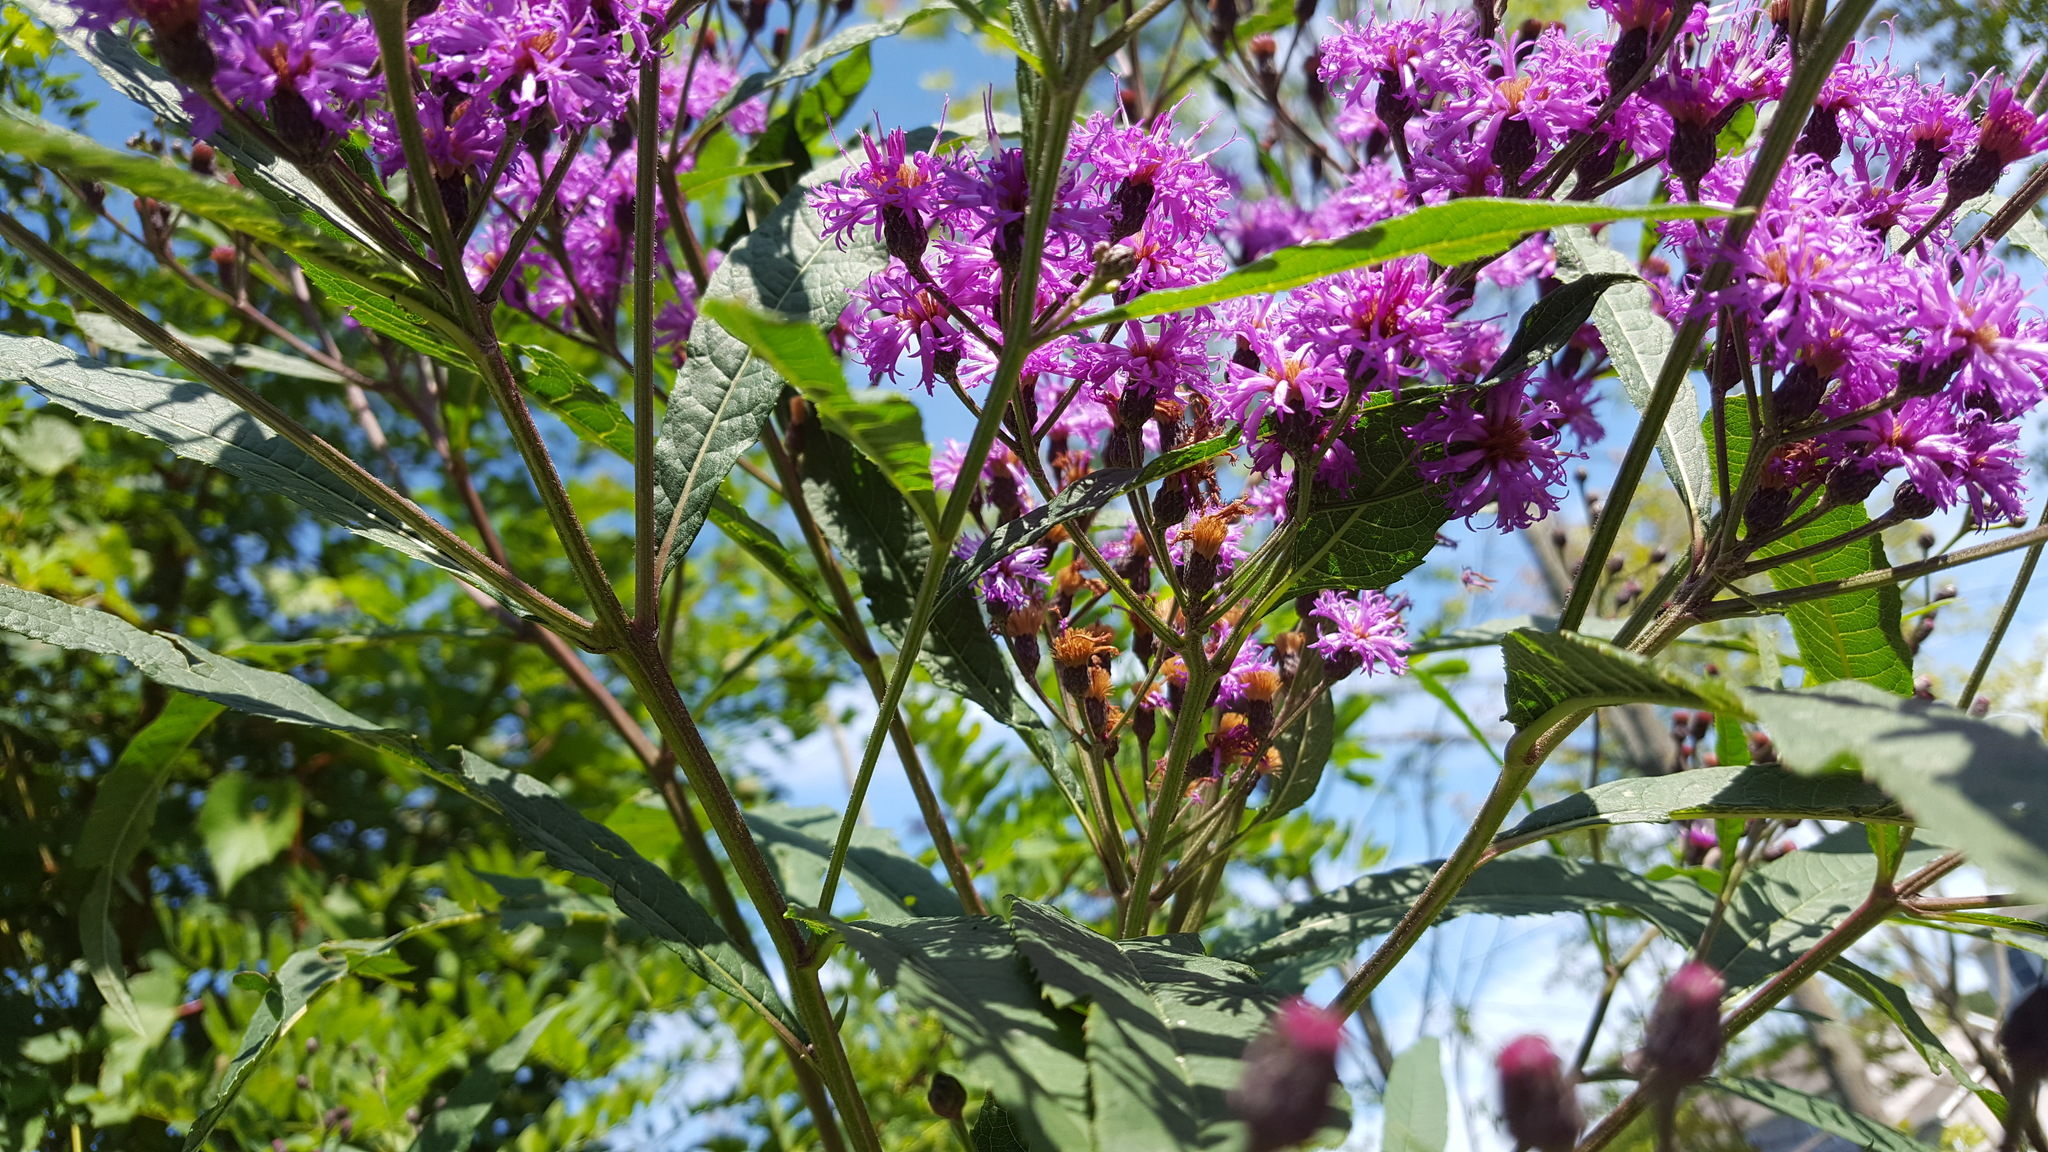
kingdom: Plantae
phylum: Tracheophyta
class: Magnoliopsida
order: Asterales
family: Asteraceae
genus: Vernonia
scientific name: Vernonia noveboracensis
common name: New york ironweed
